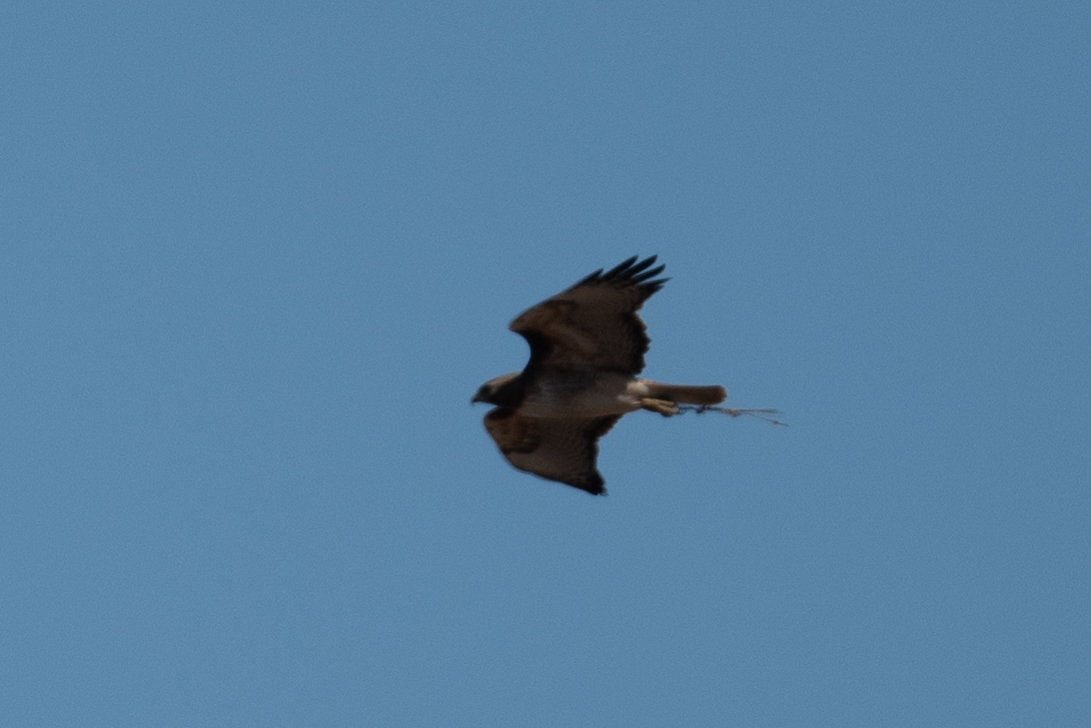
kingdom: Animalia
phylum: Chordata
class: Aves
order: Accipitriformes
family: Accipitridae
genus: Buteo
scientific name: Buteo jamaicensis
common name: Red-tailed hawk
